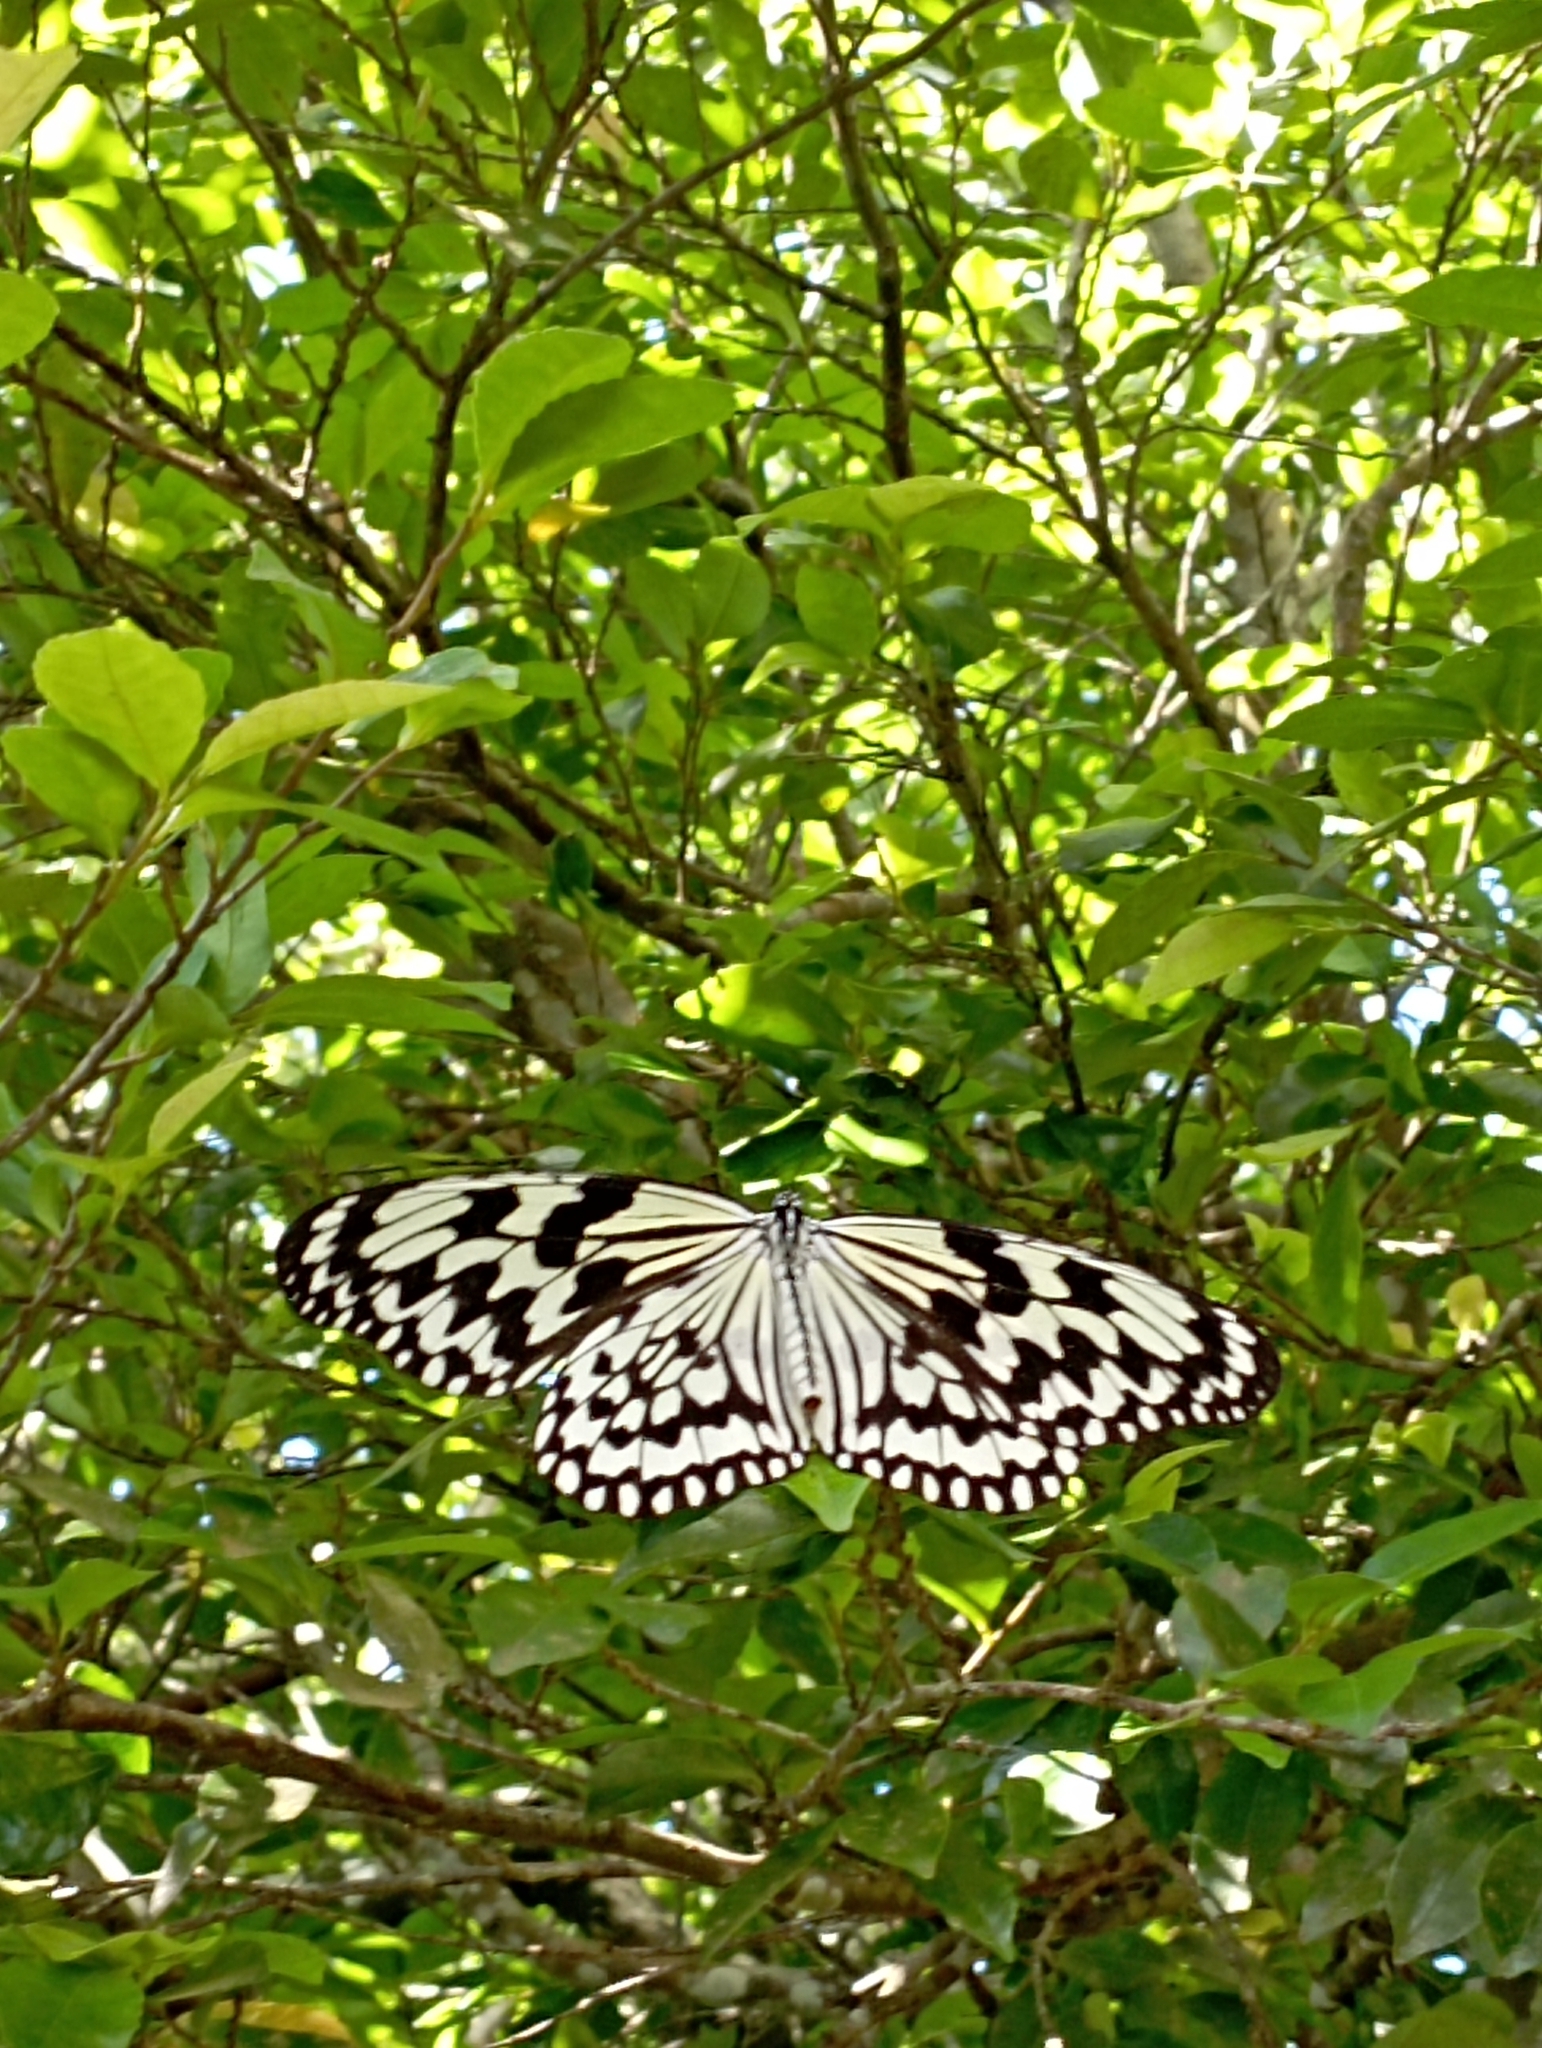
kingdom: Animalia
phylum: Arthropoda
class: Insecta
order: Lepidoptera
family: Nymphalidae
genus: Idea
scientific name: Idea leuconoe
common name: Rice paper butterfly
